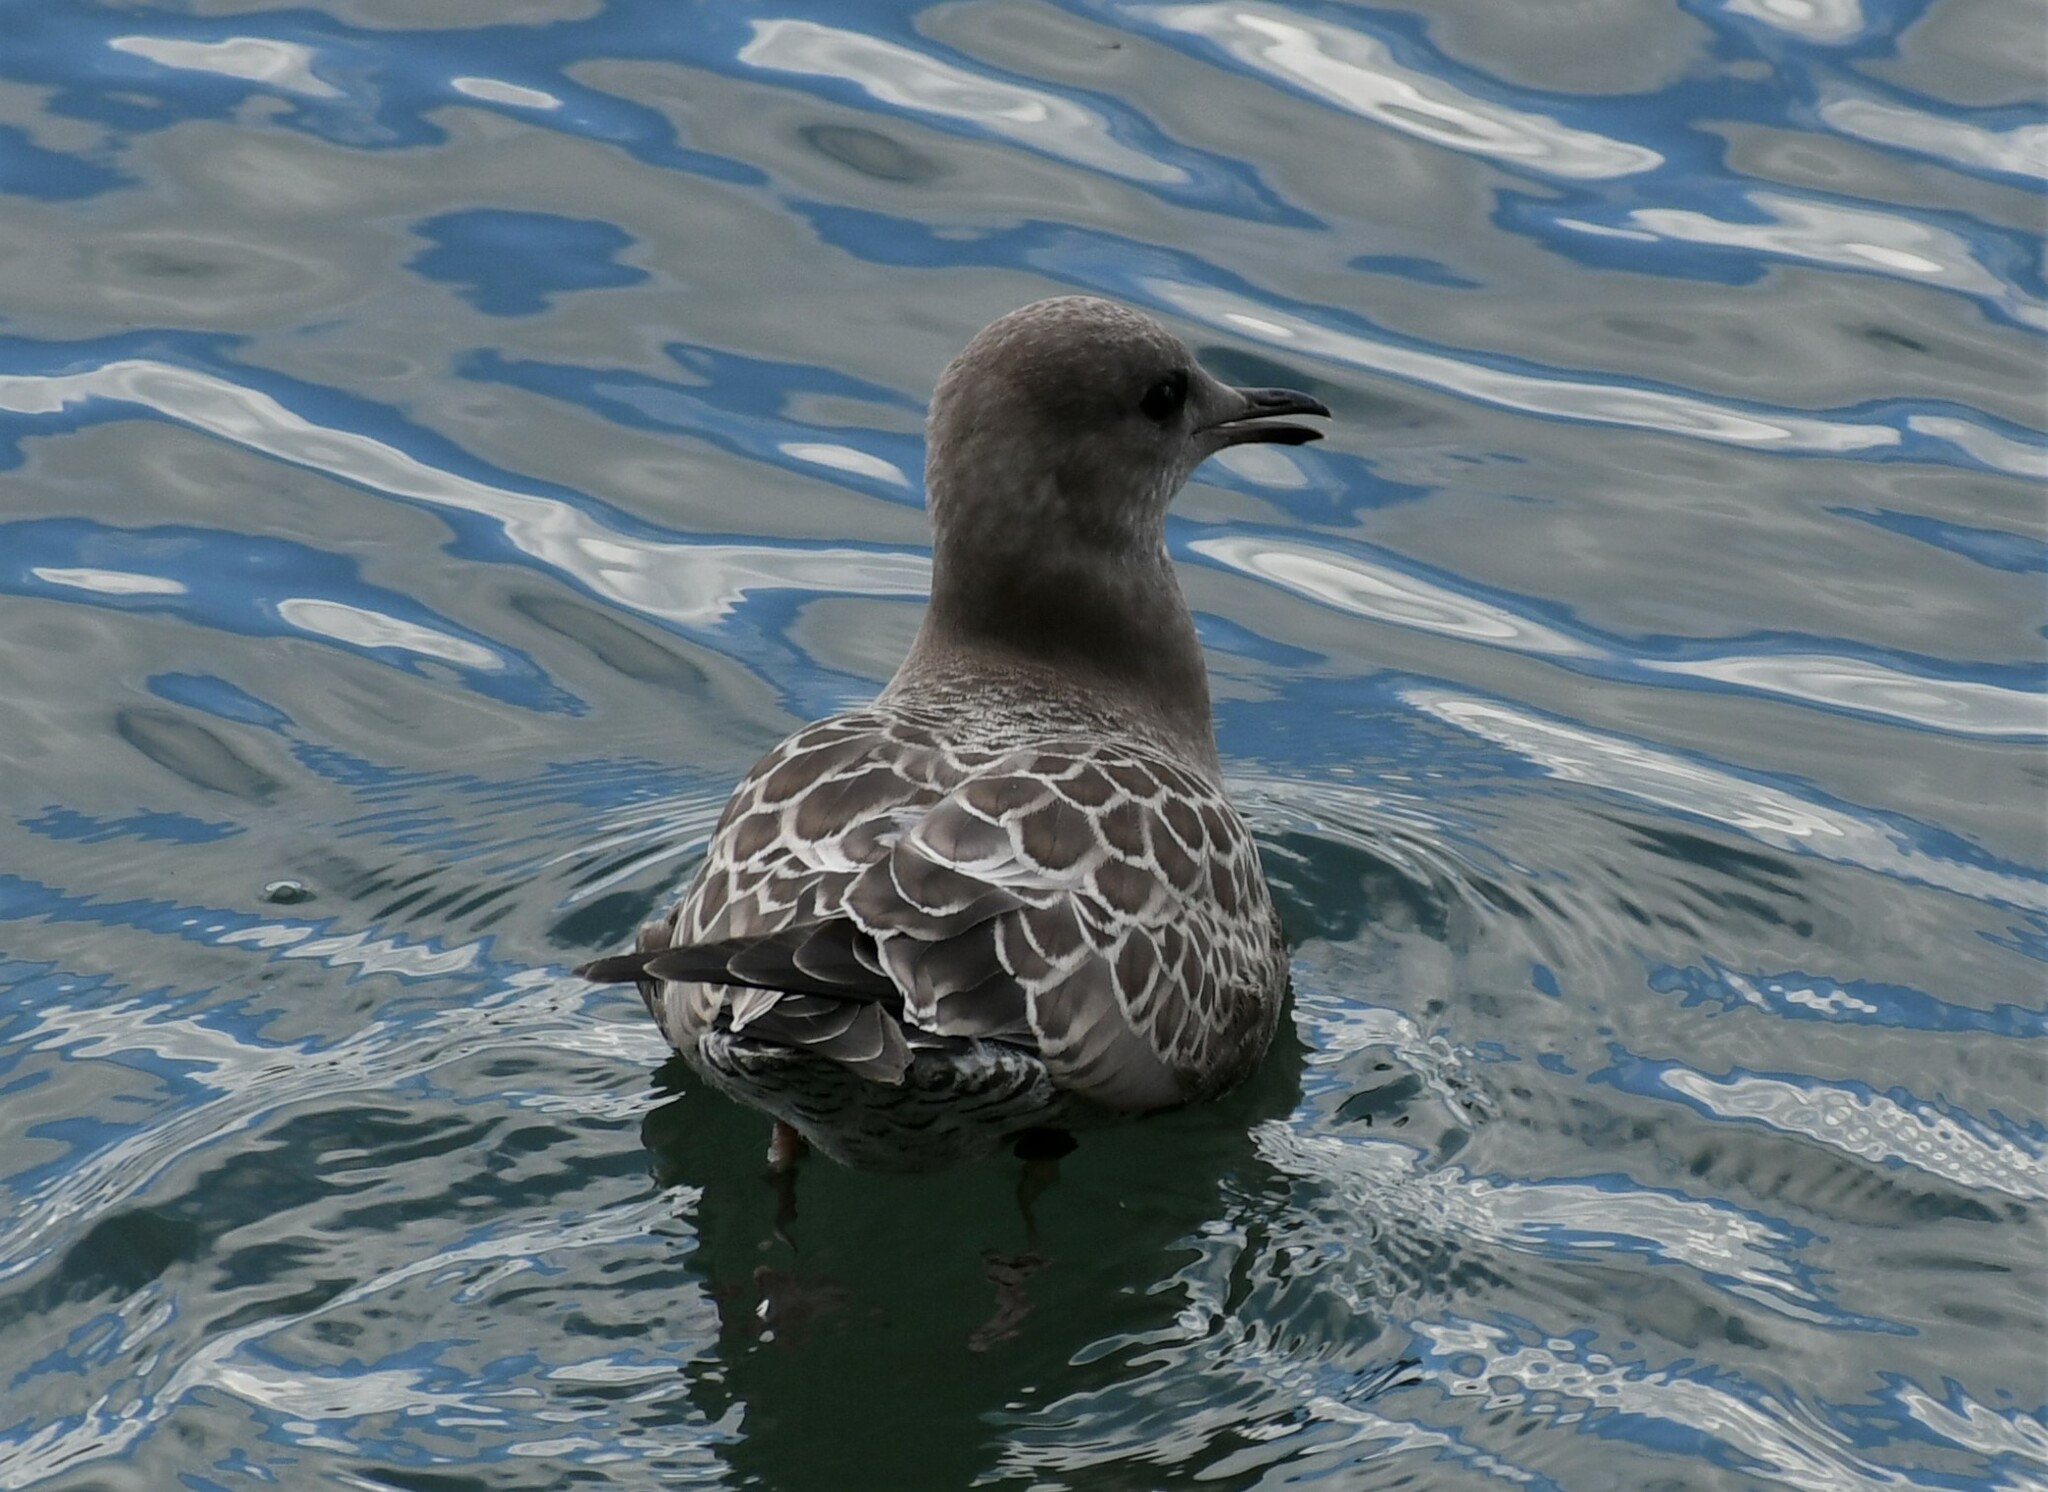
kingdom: Animalia
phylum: Chordata
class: Aves
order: Charadriiformes
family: Laridae
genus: Larus
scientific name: Larus brachyrhynchus
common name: Short-billed gull
